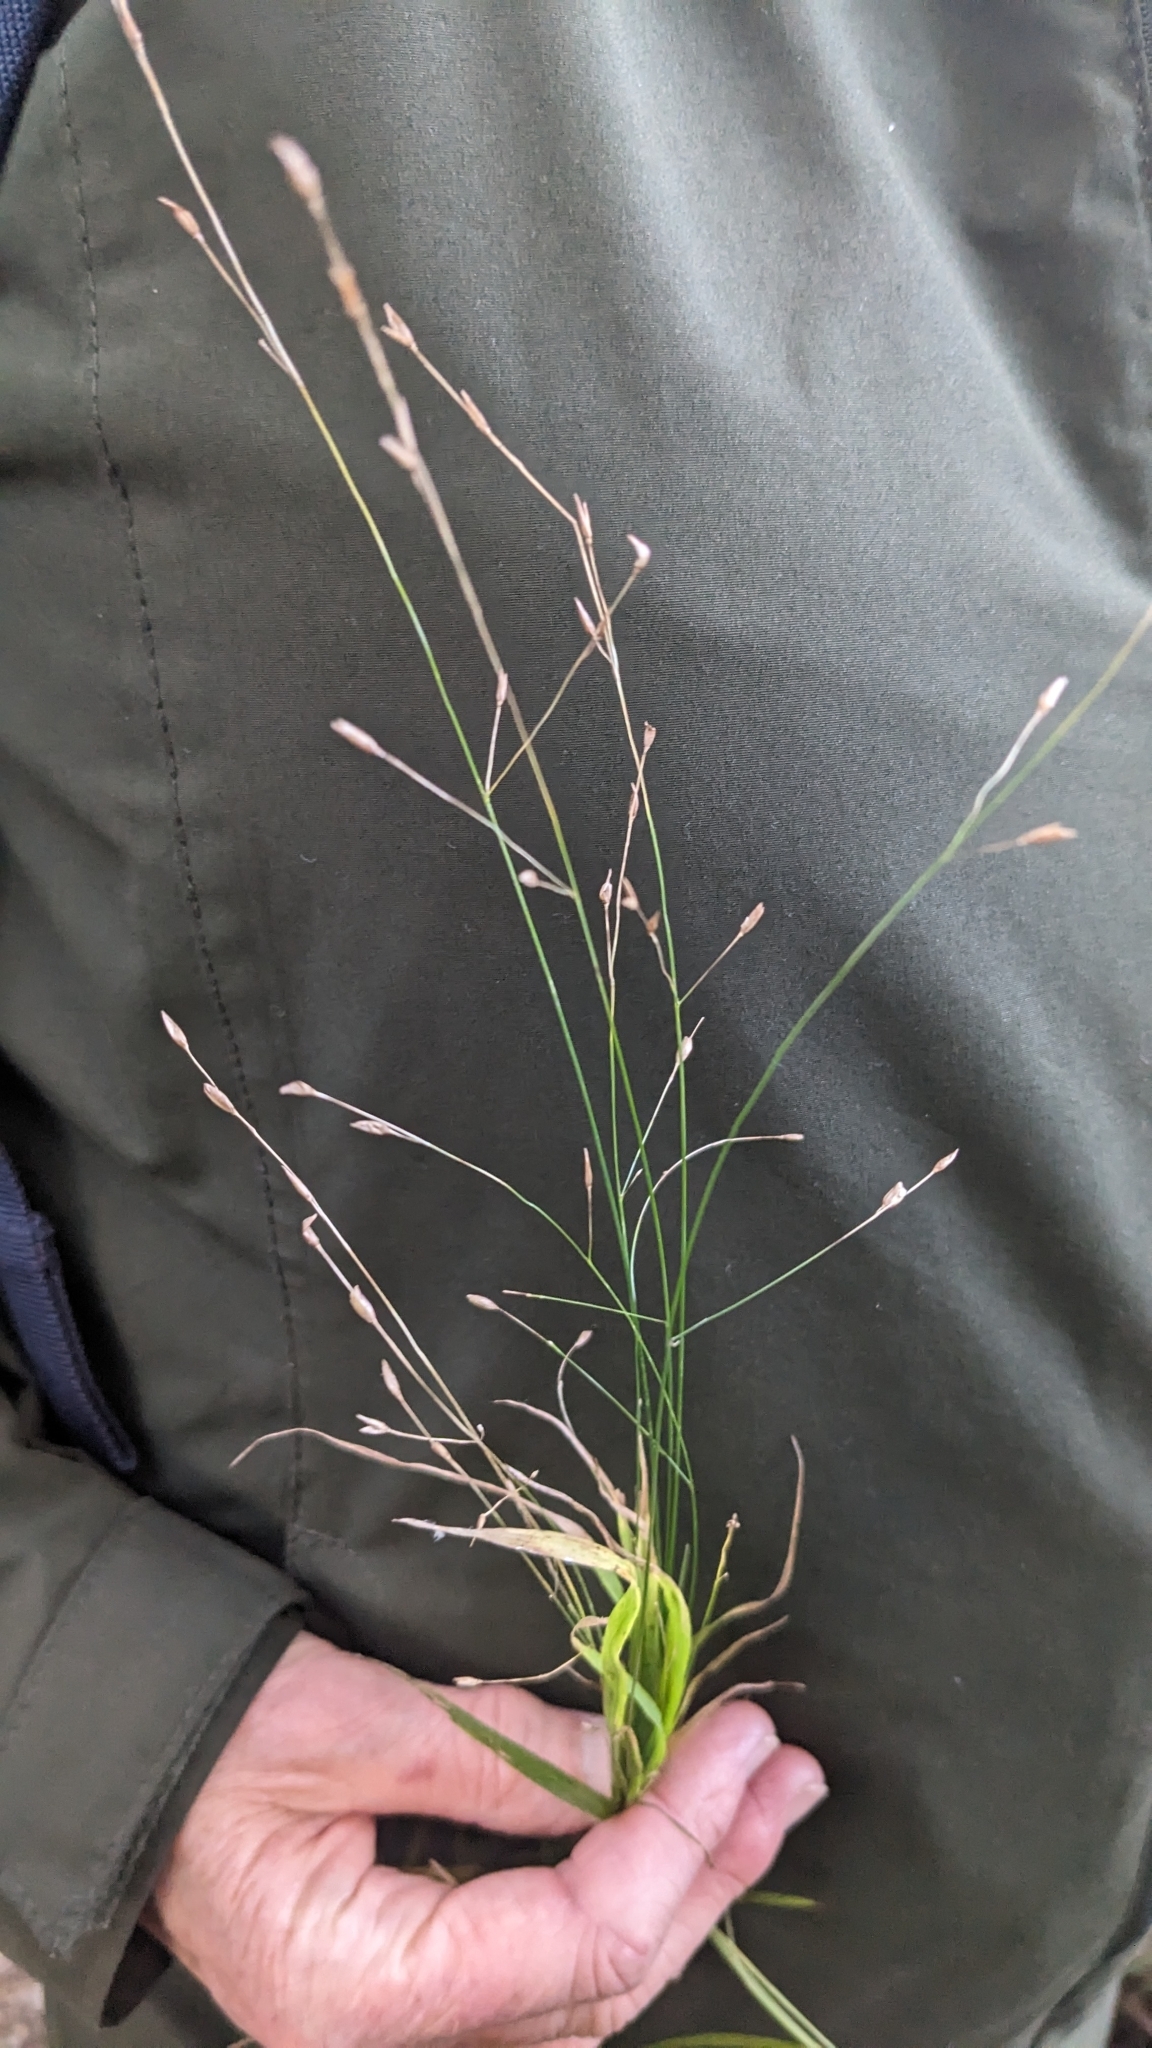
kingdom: Plantae
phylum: Tracheophyta
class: Liliopsida
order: Poales
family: Poaceae
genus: Melica
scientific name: Melica uniflora
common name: Wood melick
